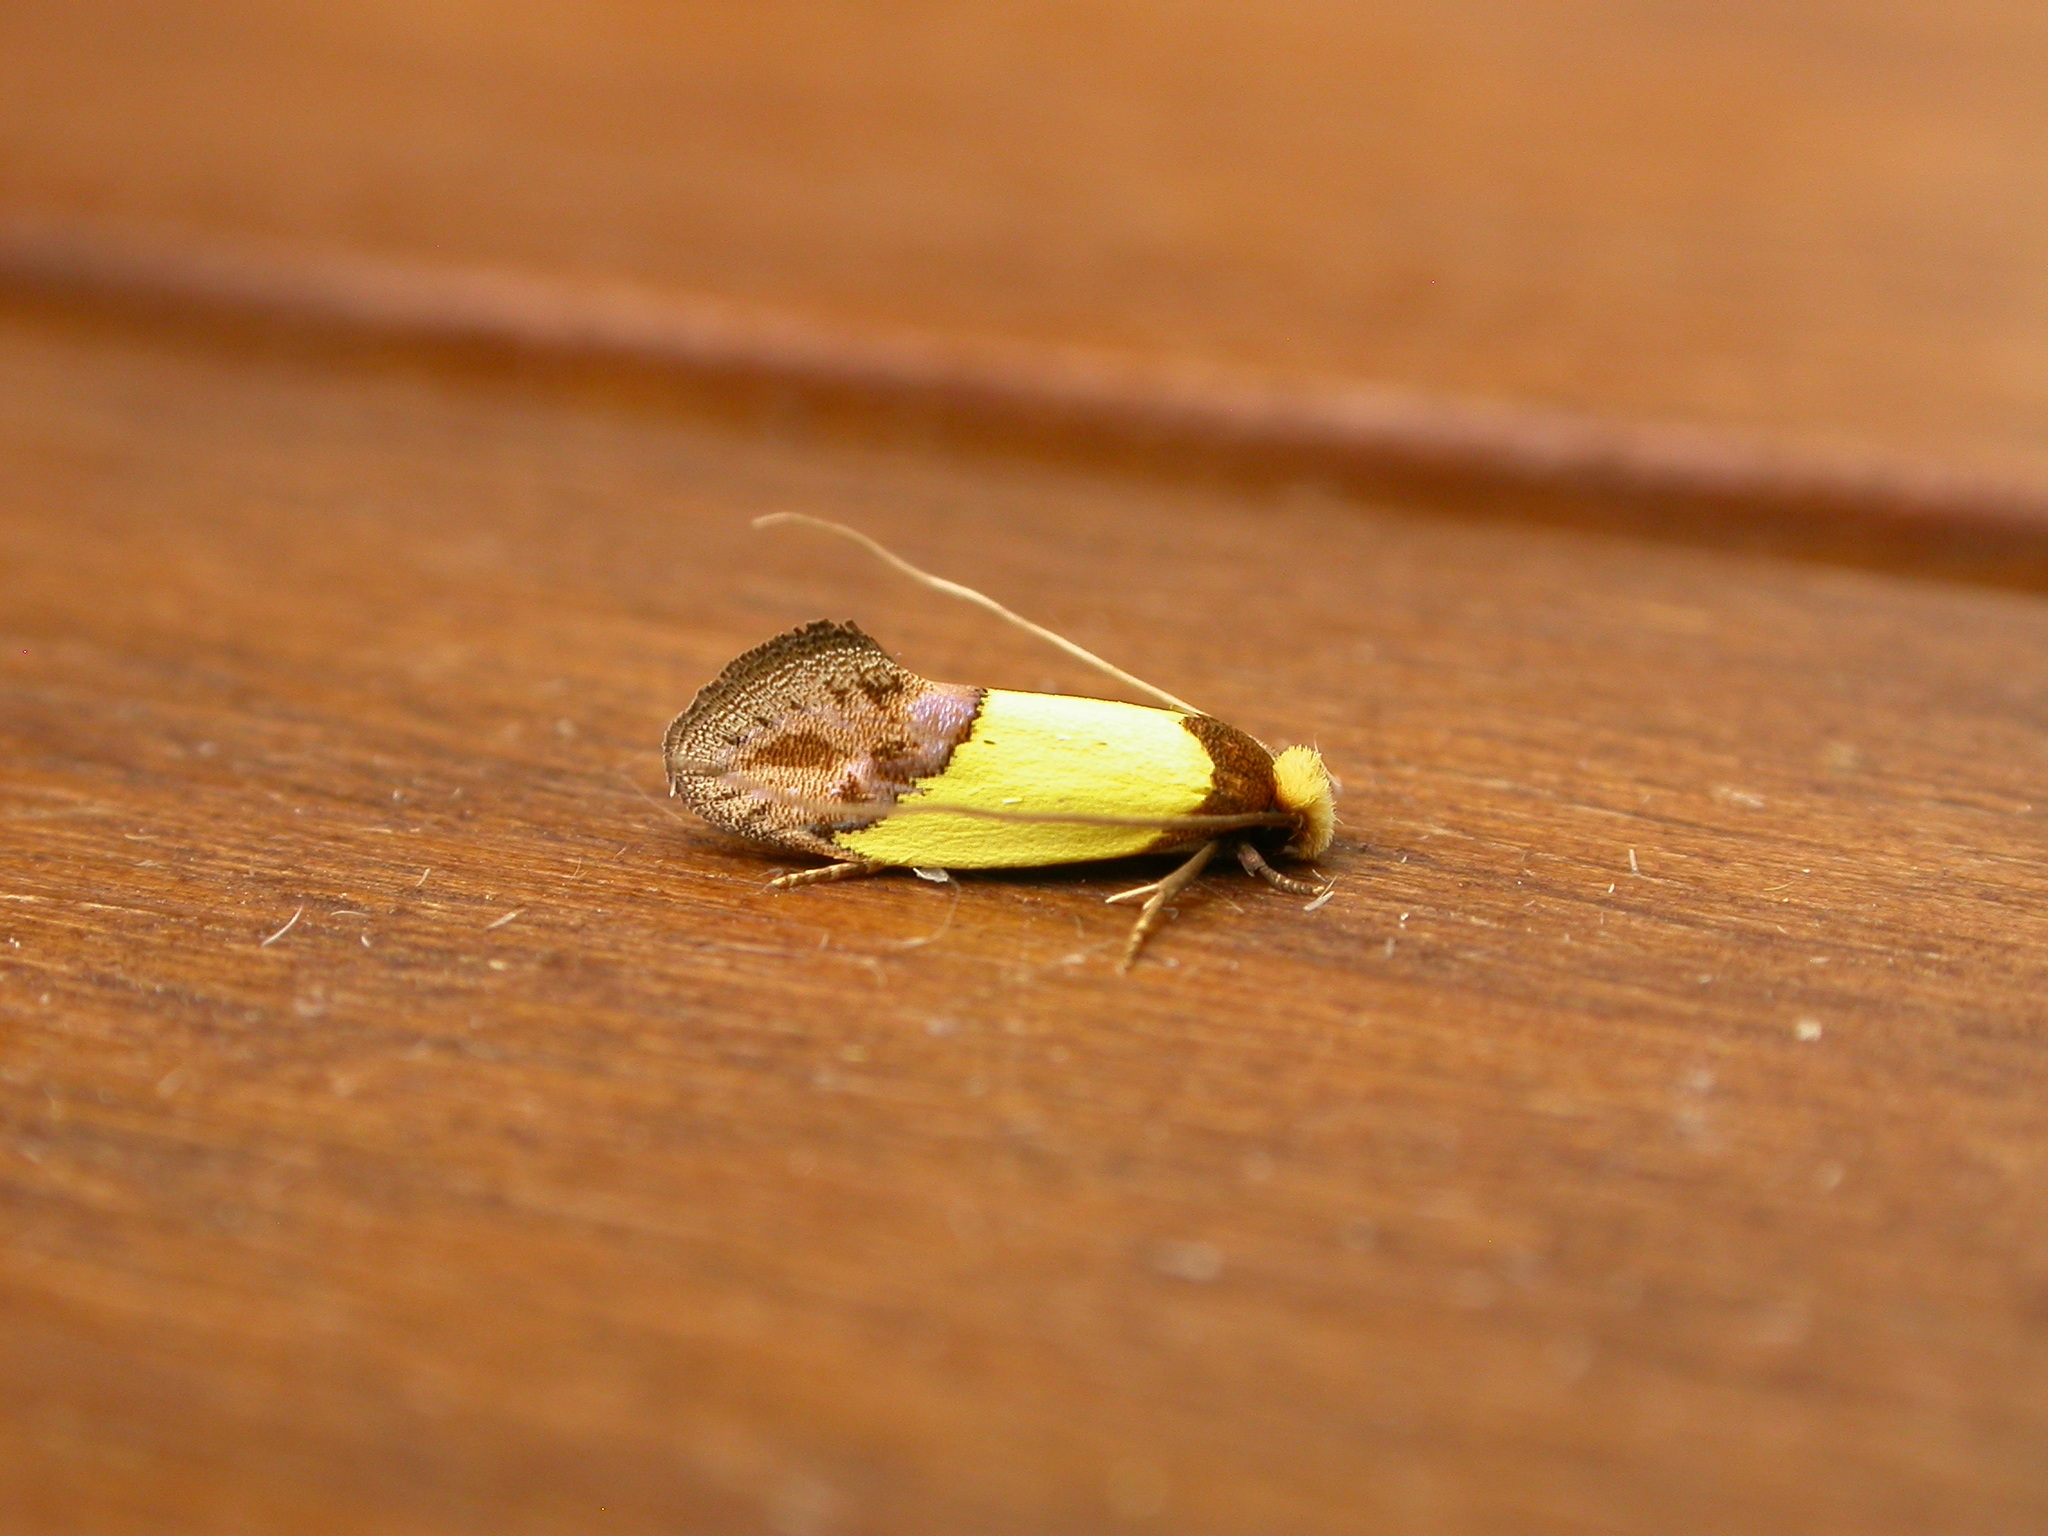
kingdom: Animalia
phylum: Arthropoda
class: Insecta
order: Lepidoptera
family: Tineidae
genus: Edosa
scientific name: Edosa xystidophora
